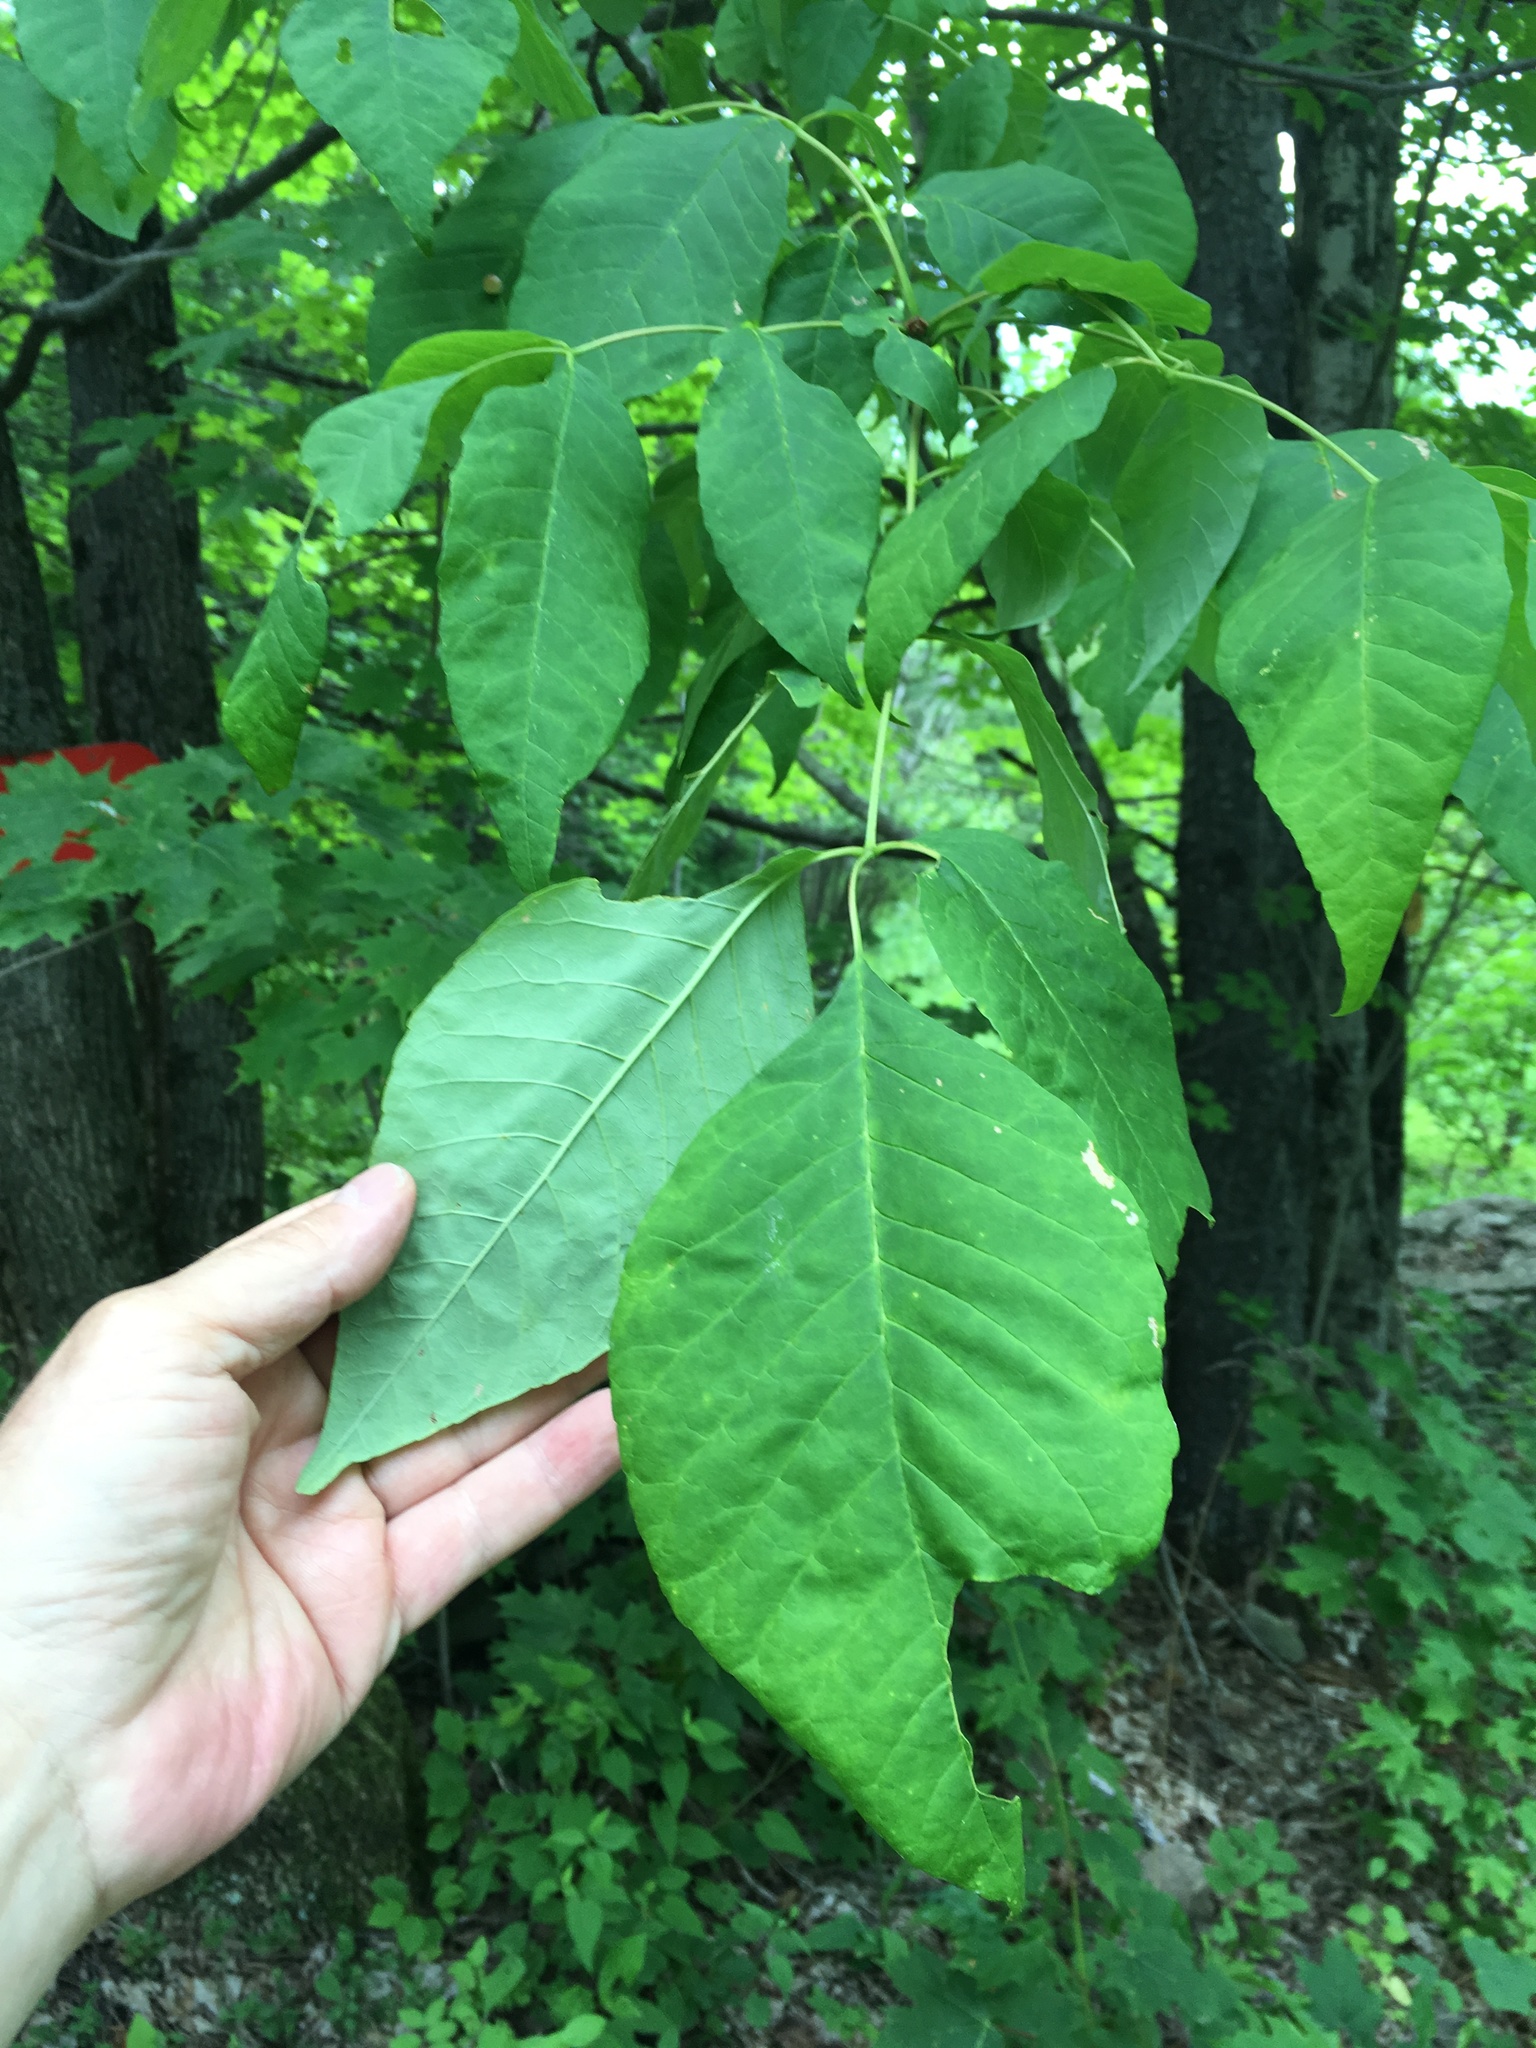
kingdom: Plantae
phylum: Tracheophyta
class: Magnoliopsida
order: Lamiales
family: Oleaceae
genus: Fraxinus
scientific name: Fraxinus americana
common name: White ash
